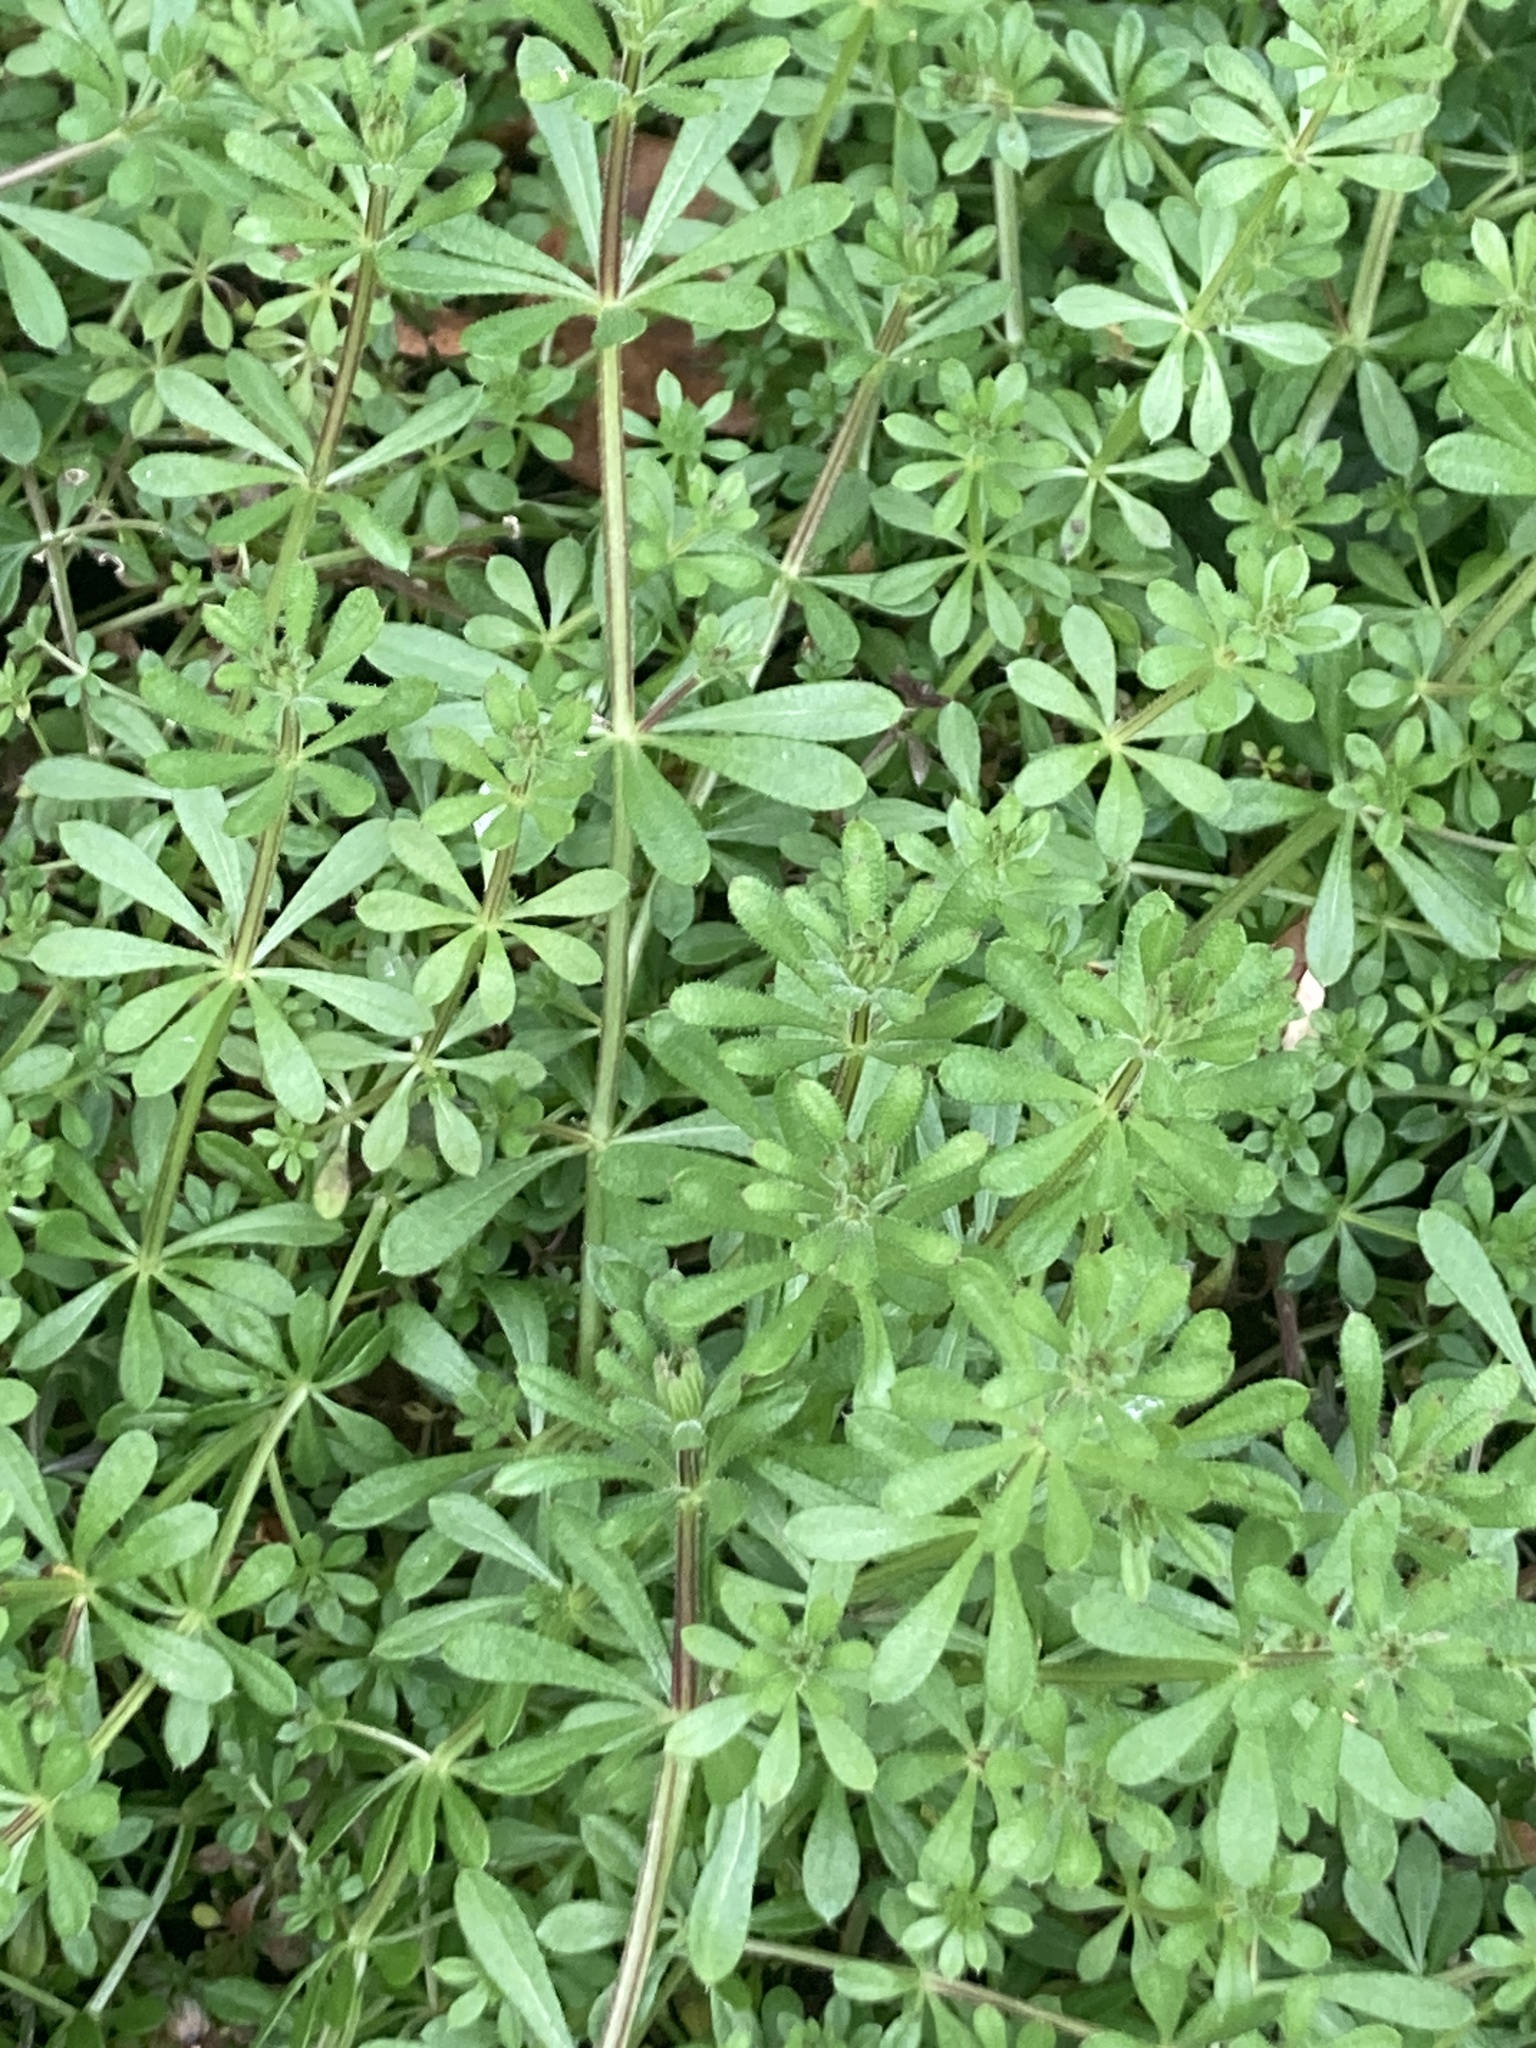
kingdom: Plantae
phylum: Tracheophyta
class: Magnoliopsida
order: Gentianales
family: Rubiaceae
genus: Galium
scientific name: Galium aparine
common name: Cleavers
